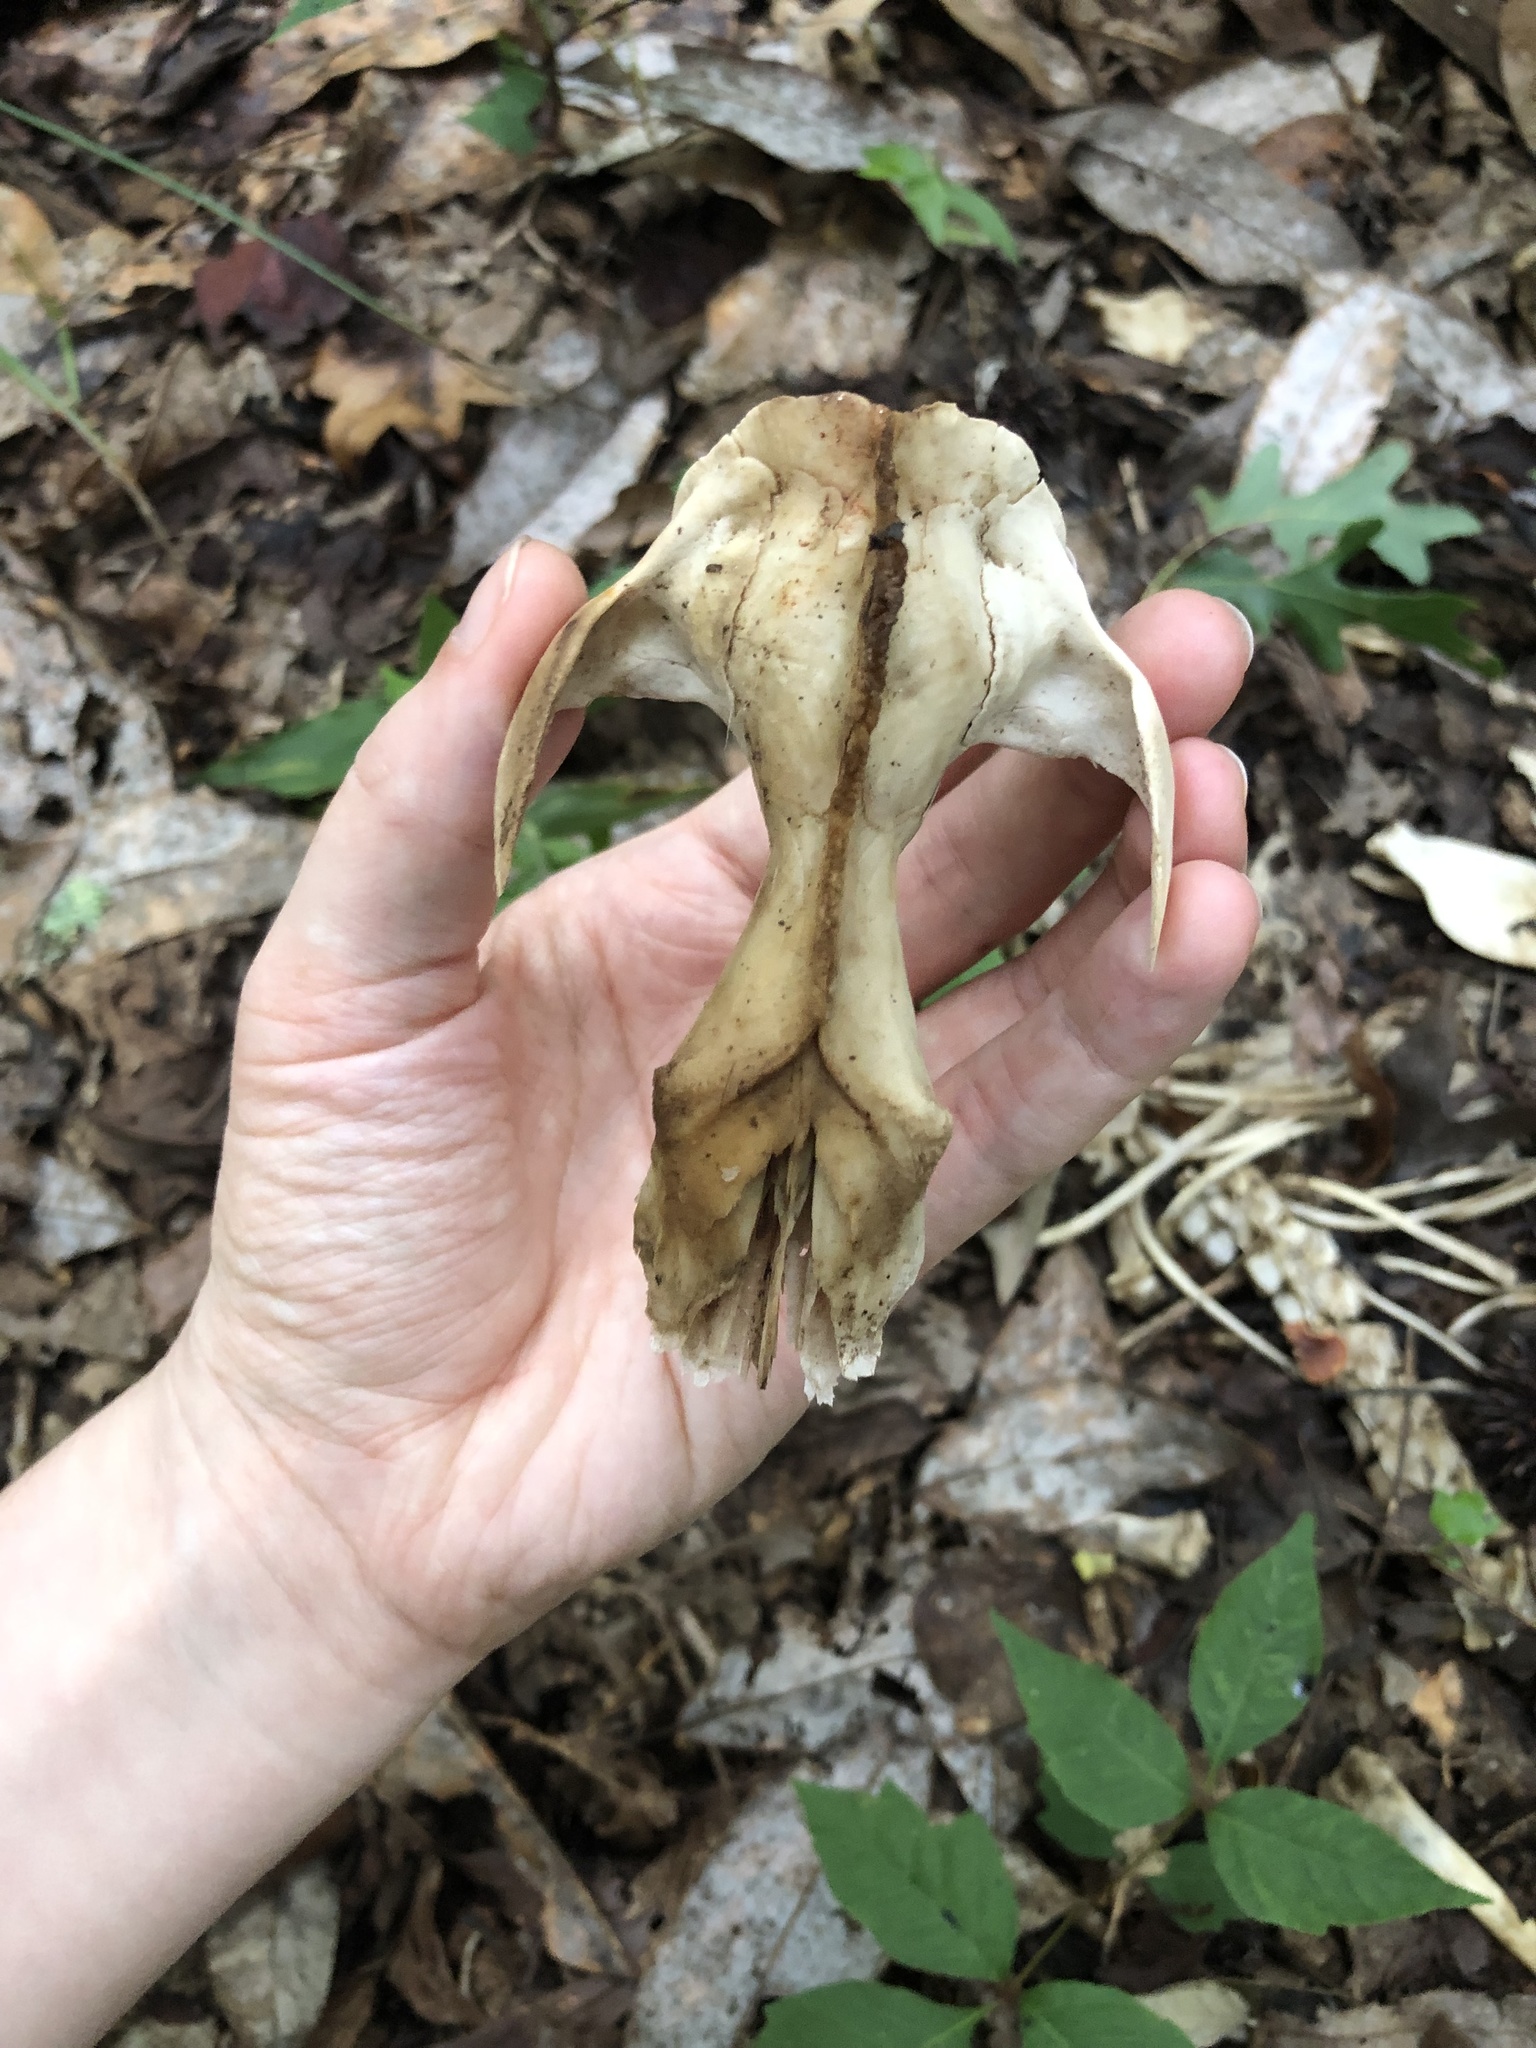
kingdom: Animalia
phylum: Chordata
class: Mammalia
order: Didelphimorphia
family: Didelphidae
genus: Didelphis
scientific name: Didelphis virginiana
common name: Virginia opossum
